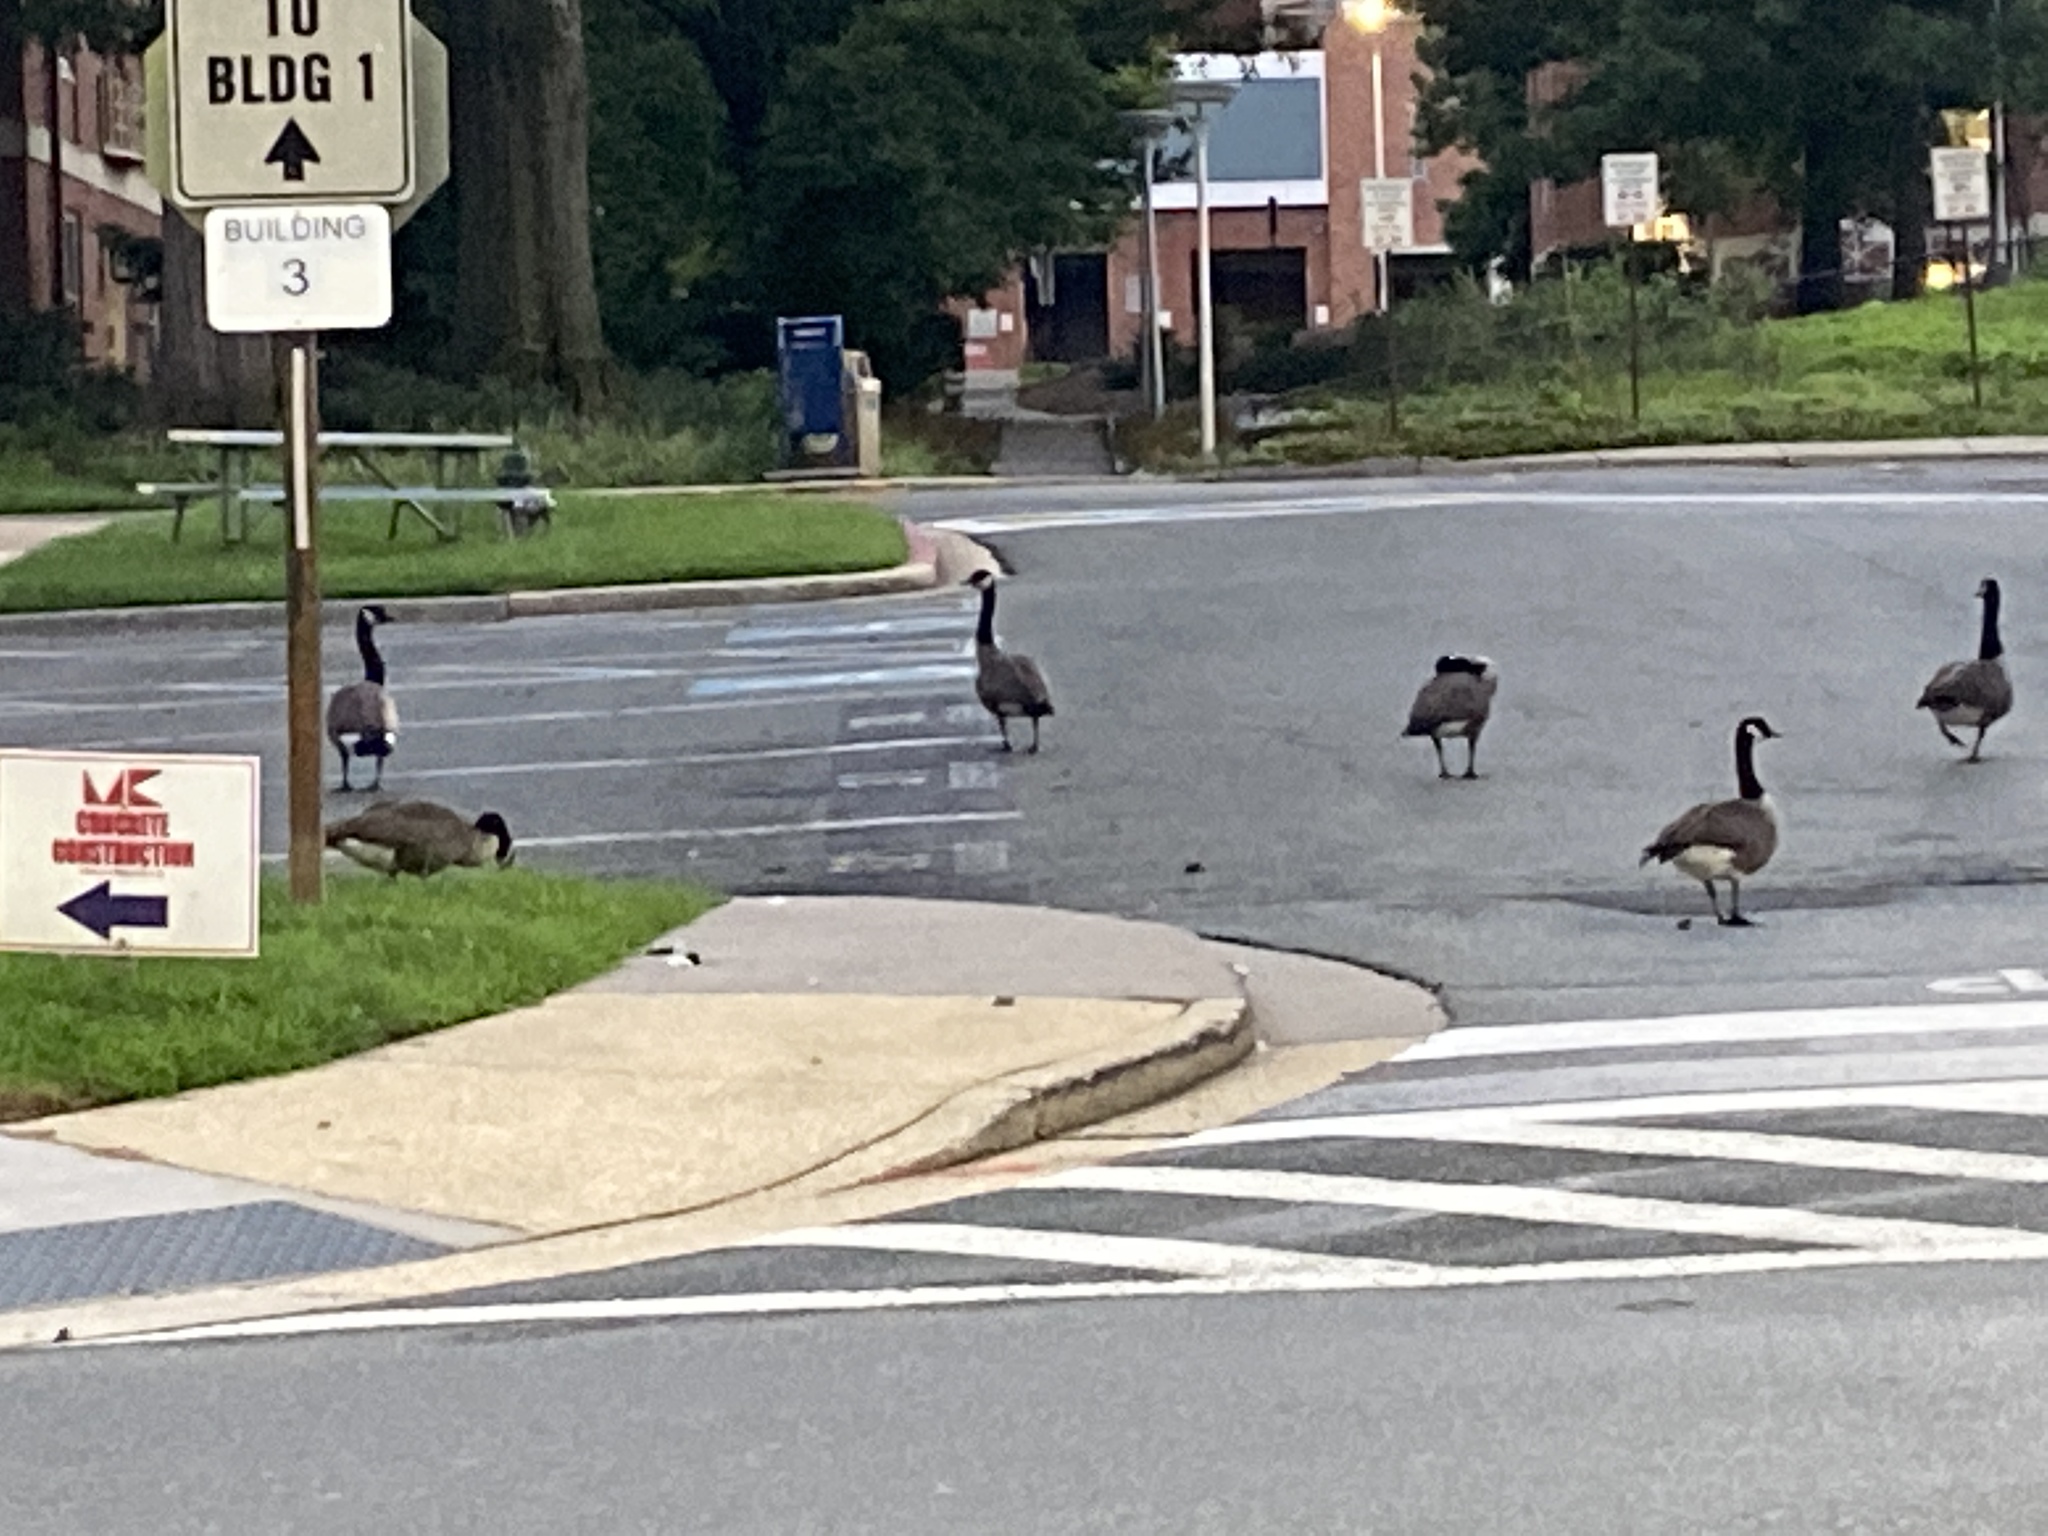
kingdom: Animalia
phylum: Chordata
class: Aves
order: Anseriformes
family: Anatidae
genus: Branta
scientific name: Branta canadensis
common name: Canada goose
